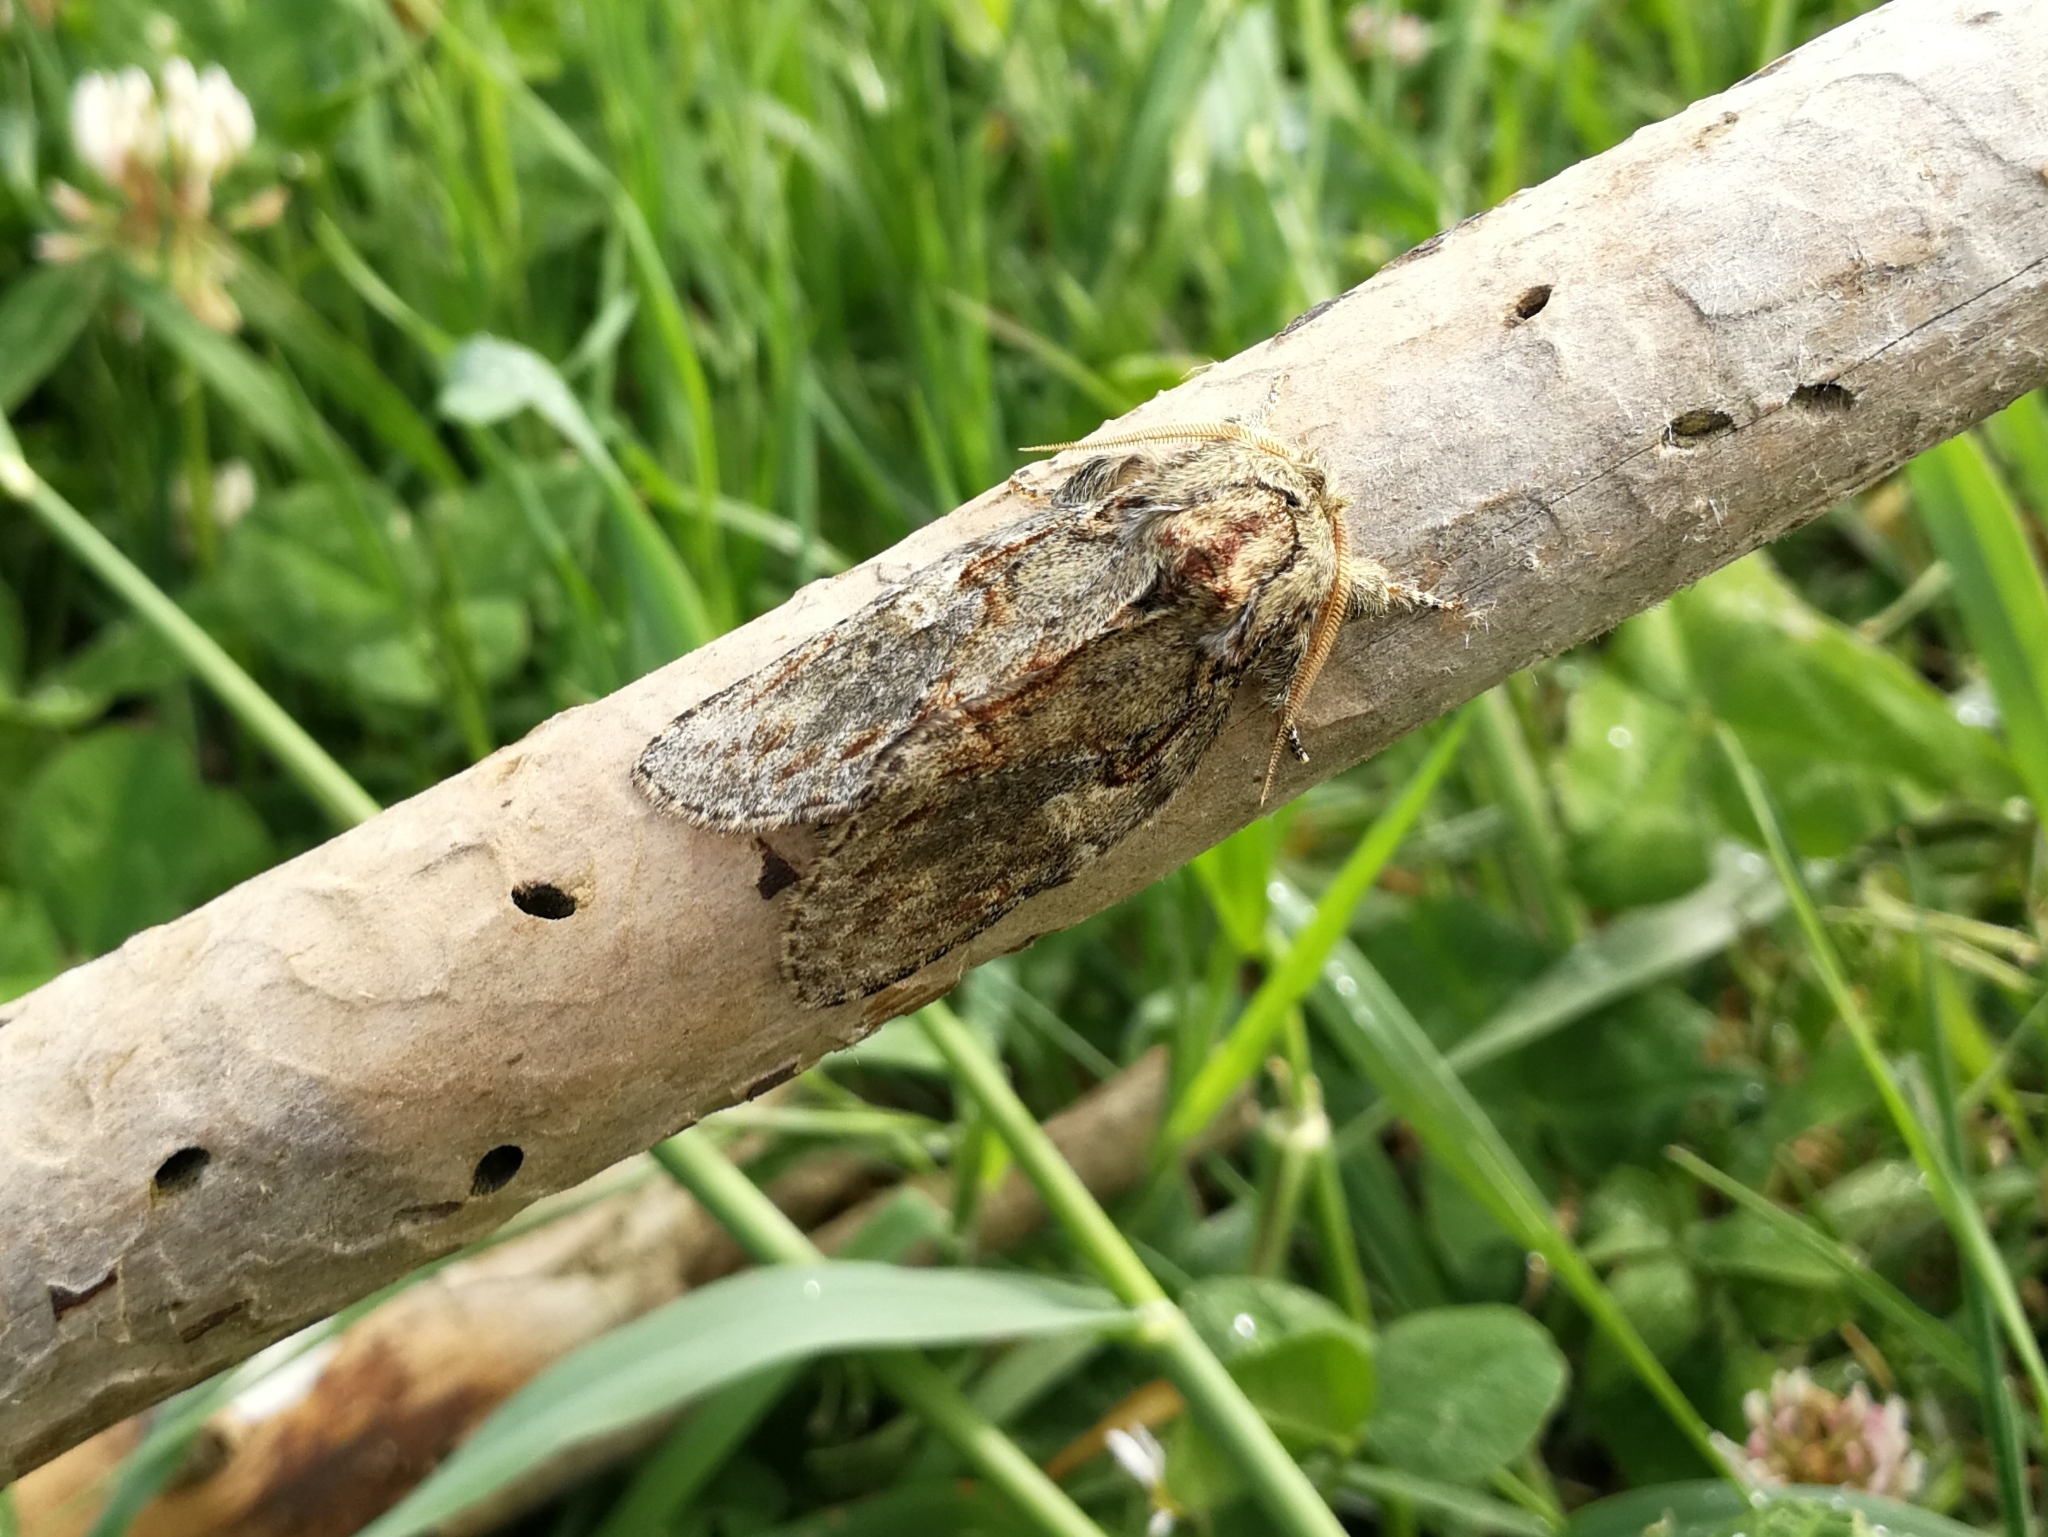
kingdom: Animalia
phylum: Arthropoda
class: Insecta
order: Lepidoptera
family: Notodontidae
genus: Peridea
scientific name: Peridea anceps
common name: Great prominent
